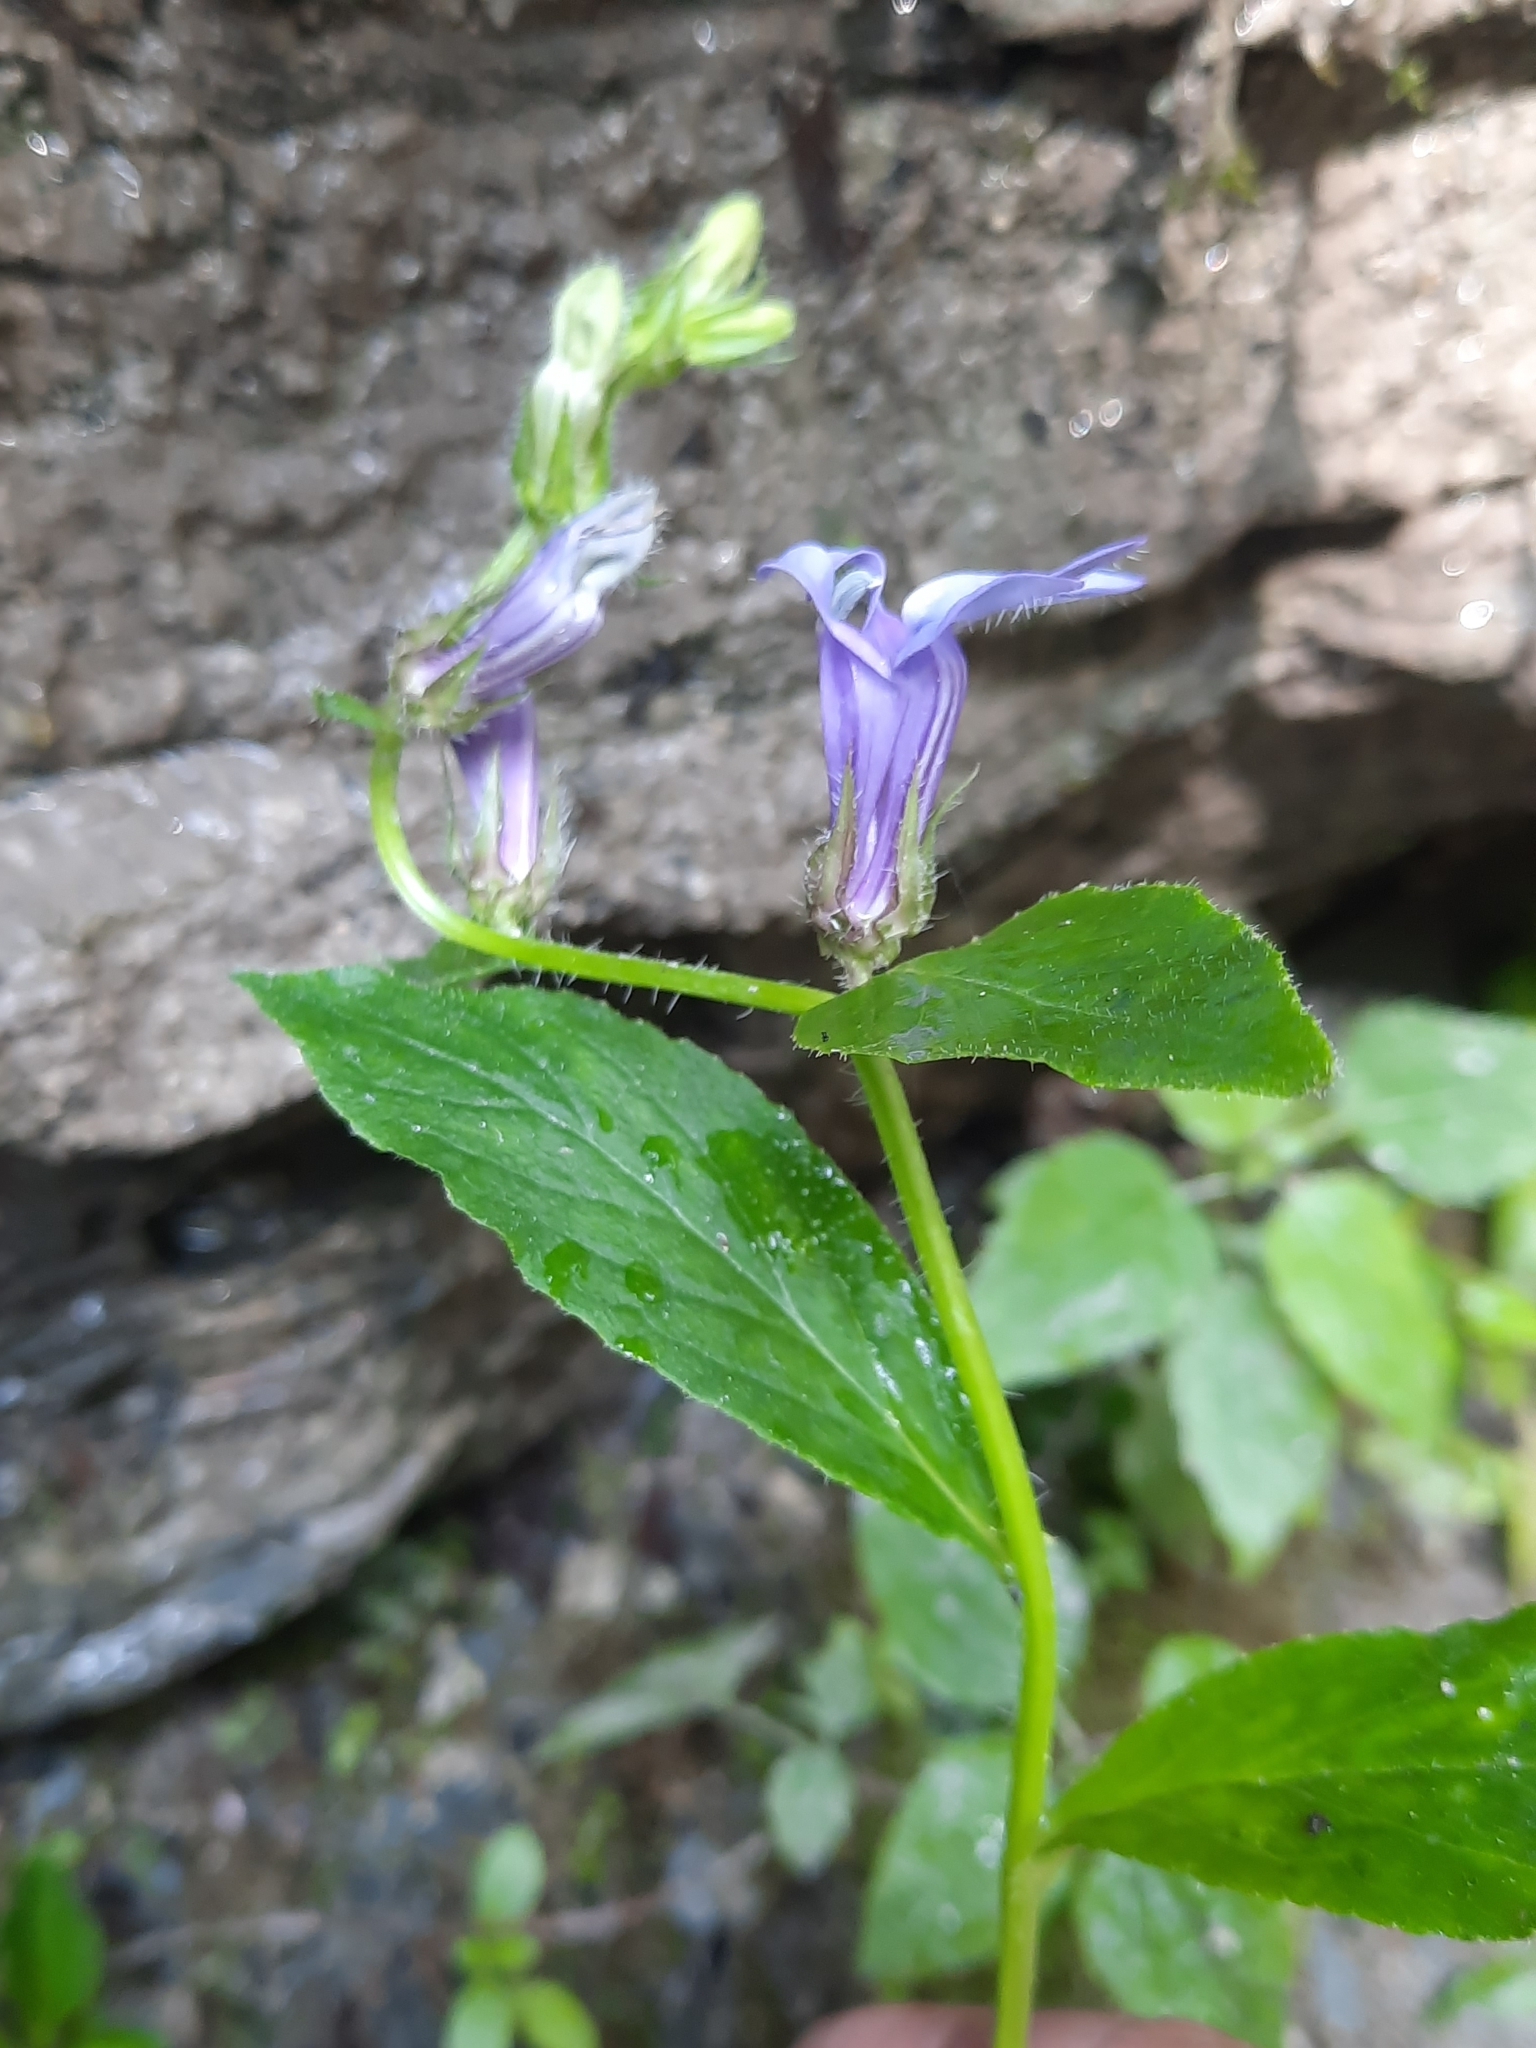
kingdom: Plantae
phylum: Tracheophyta
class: Magnoliopsida
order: Asterales
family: Campanulaceae
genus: Lobelia
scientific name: Lobelia siphilitica
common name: Great lobelia
